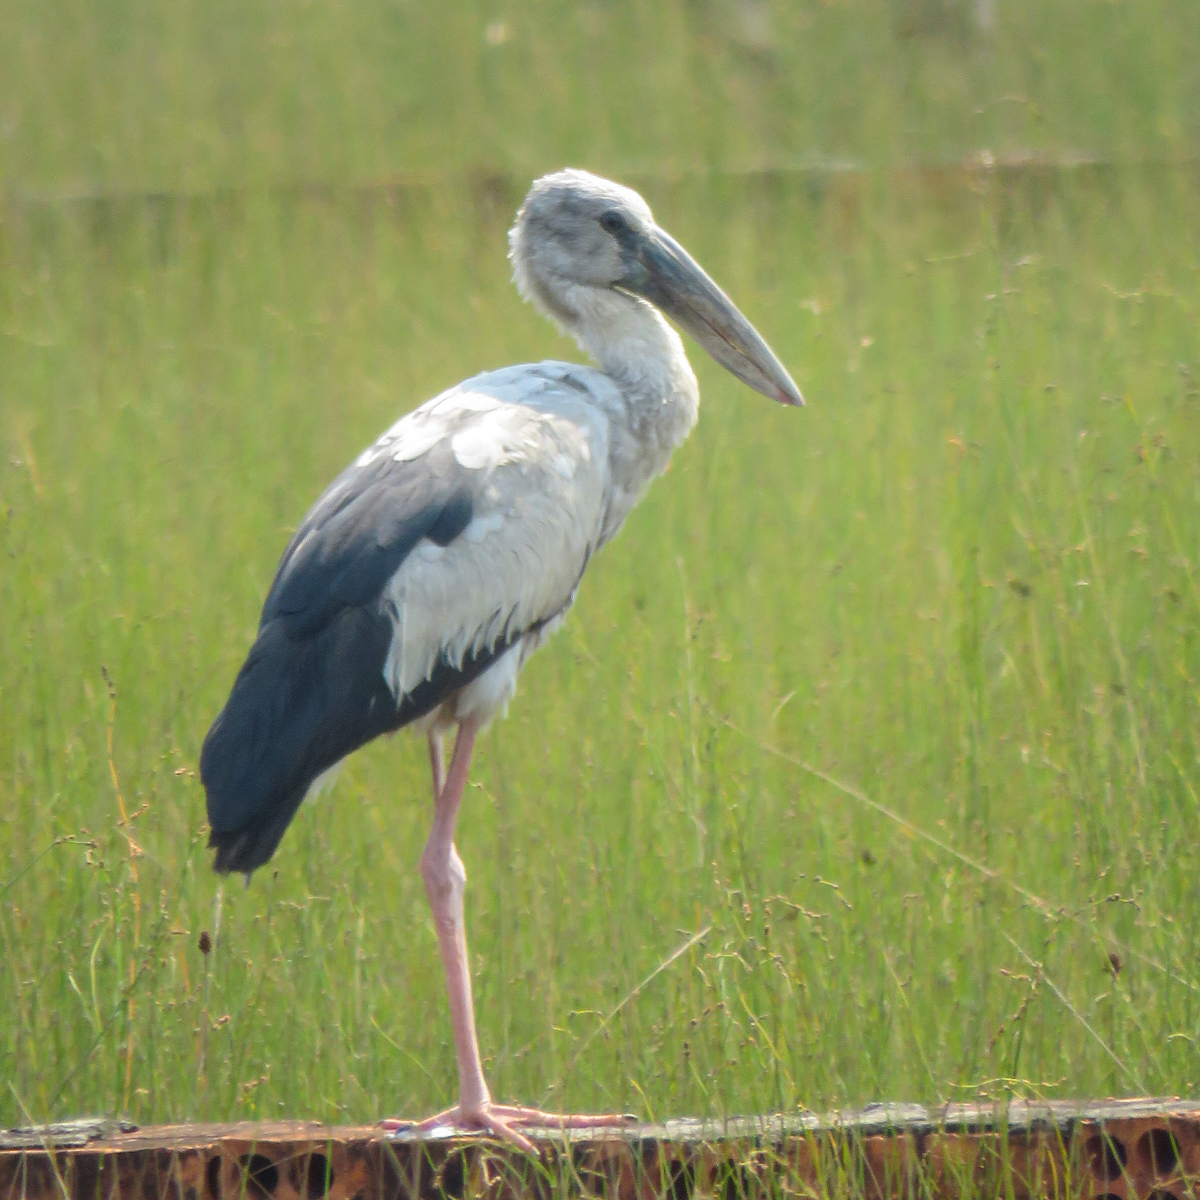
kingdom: Animalia
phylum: Chordata
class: Aves
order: Ciconiiformes
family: Ciconiidae
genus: Anastomus
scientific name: Anastomus oscitans
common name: Asian openbill
